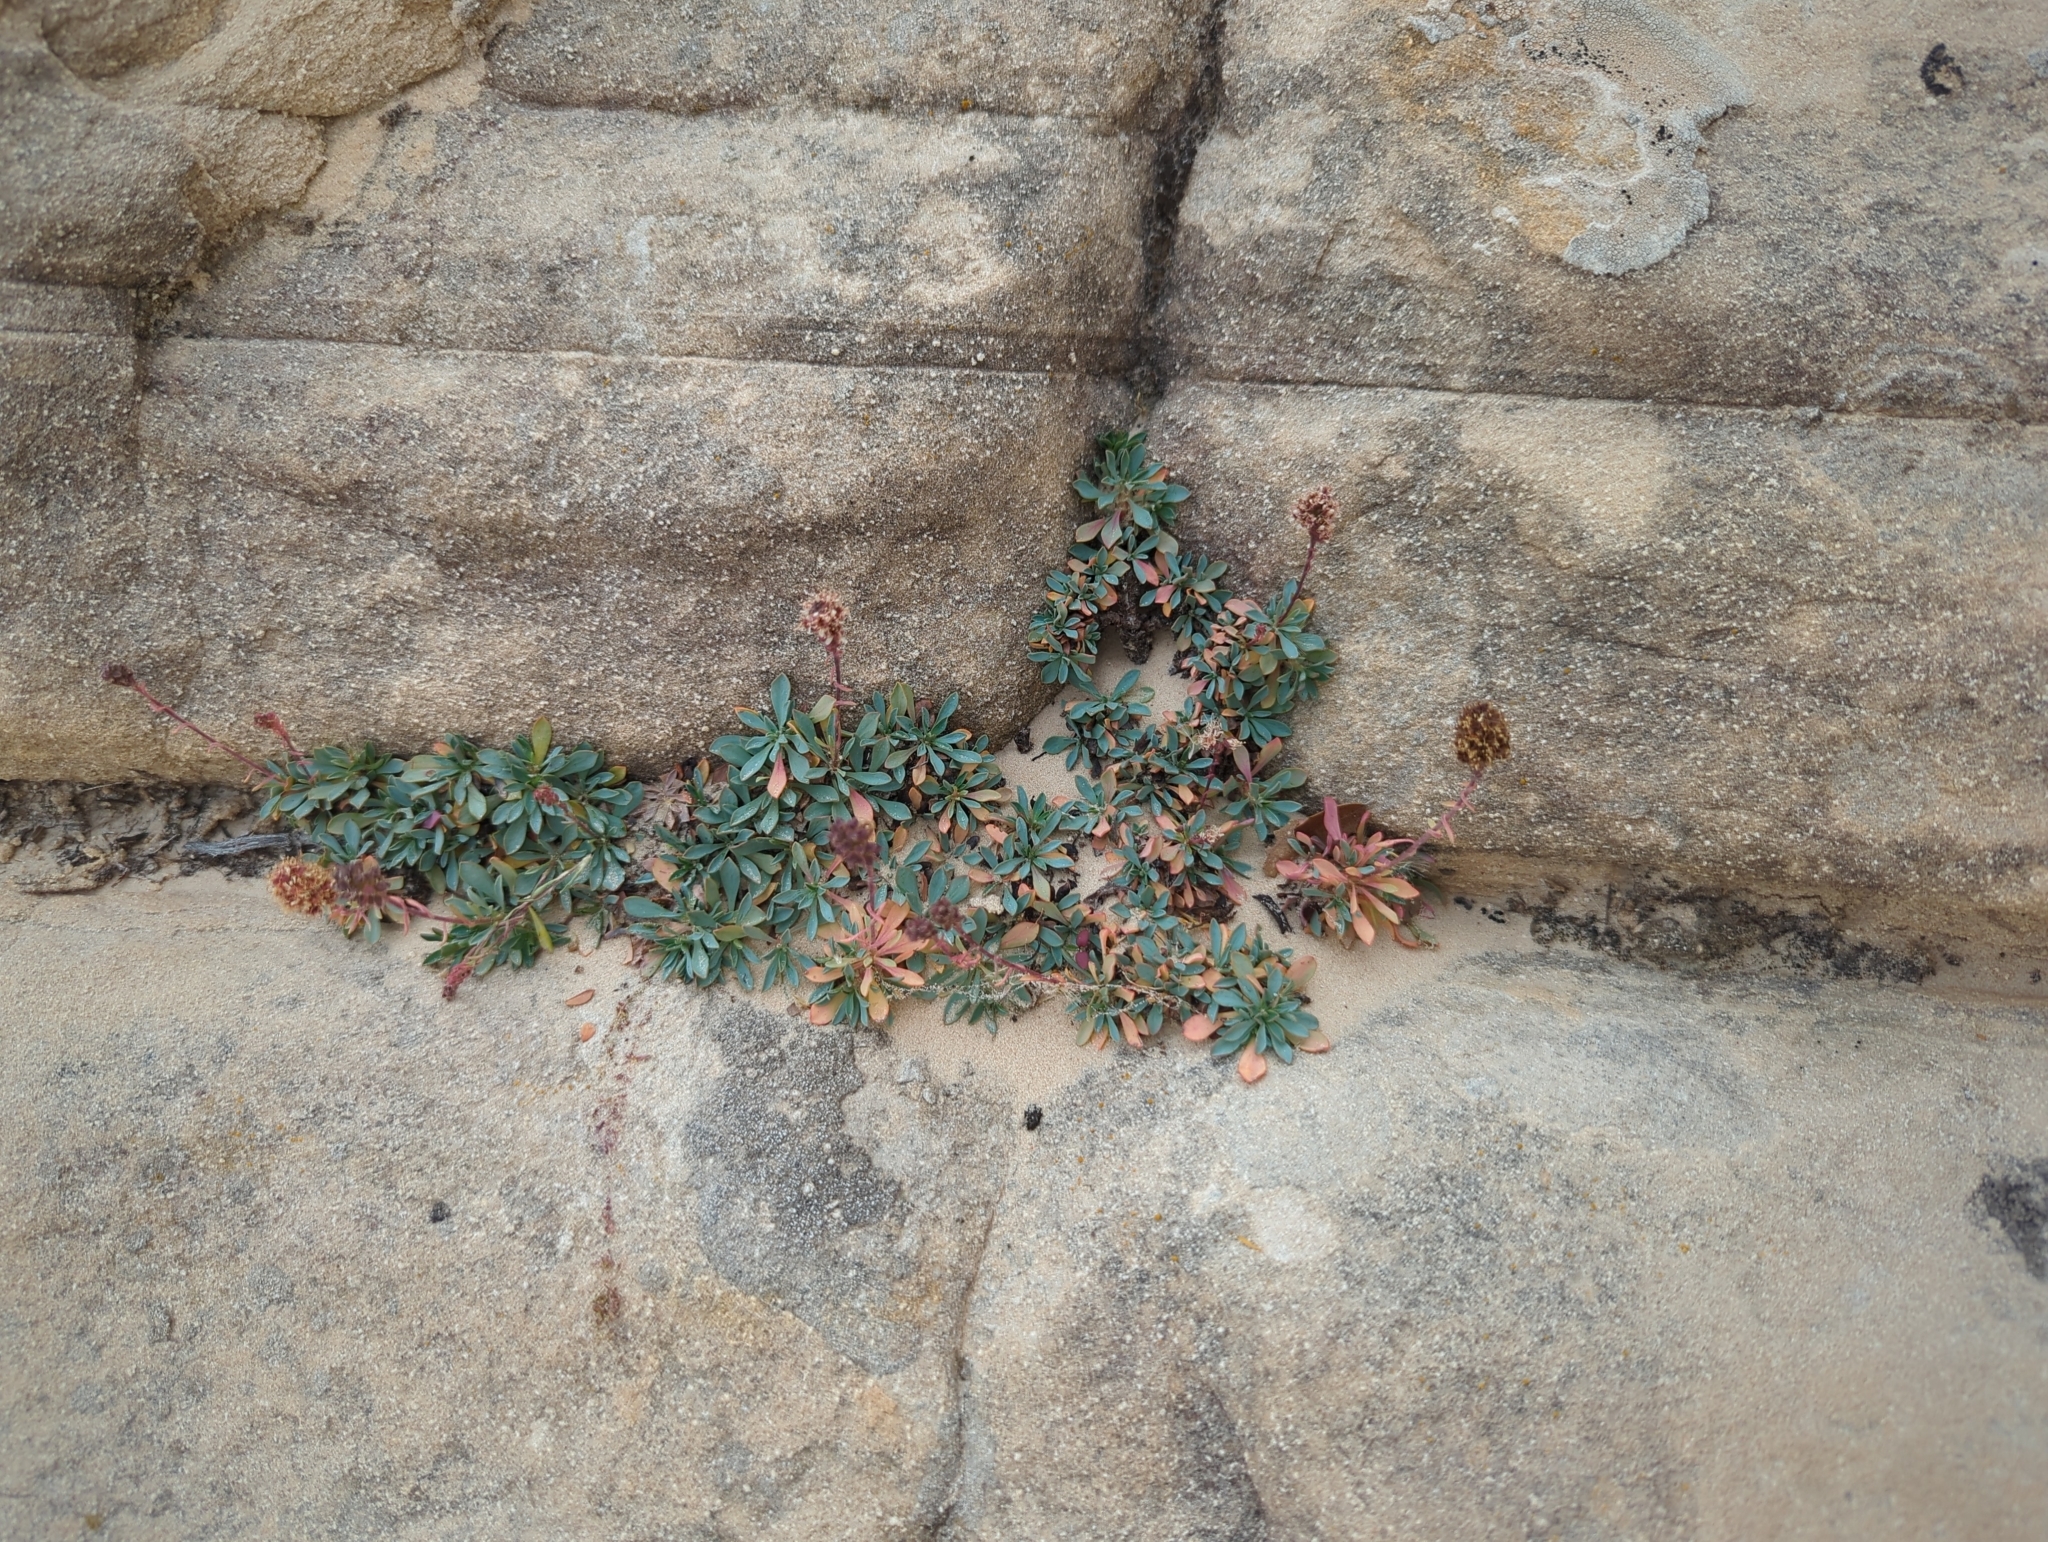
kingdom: Plantae
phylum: Tracheophyta
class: Magnoliopsida
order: Rosales
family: Rosaceae
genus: Petrophytum
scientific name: Petrophytum caespitosum
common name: Mat rockspirea
